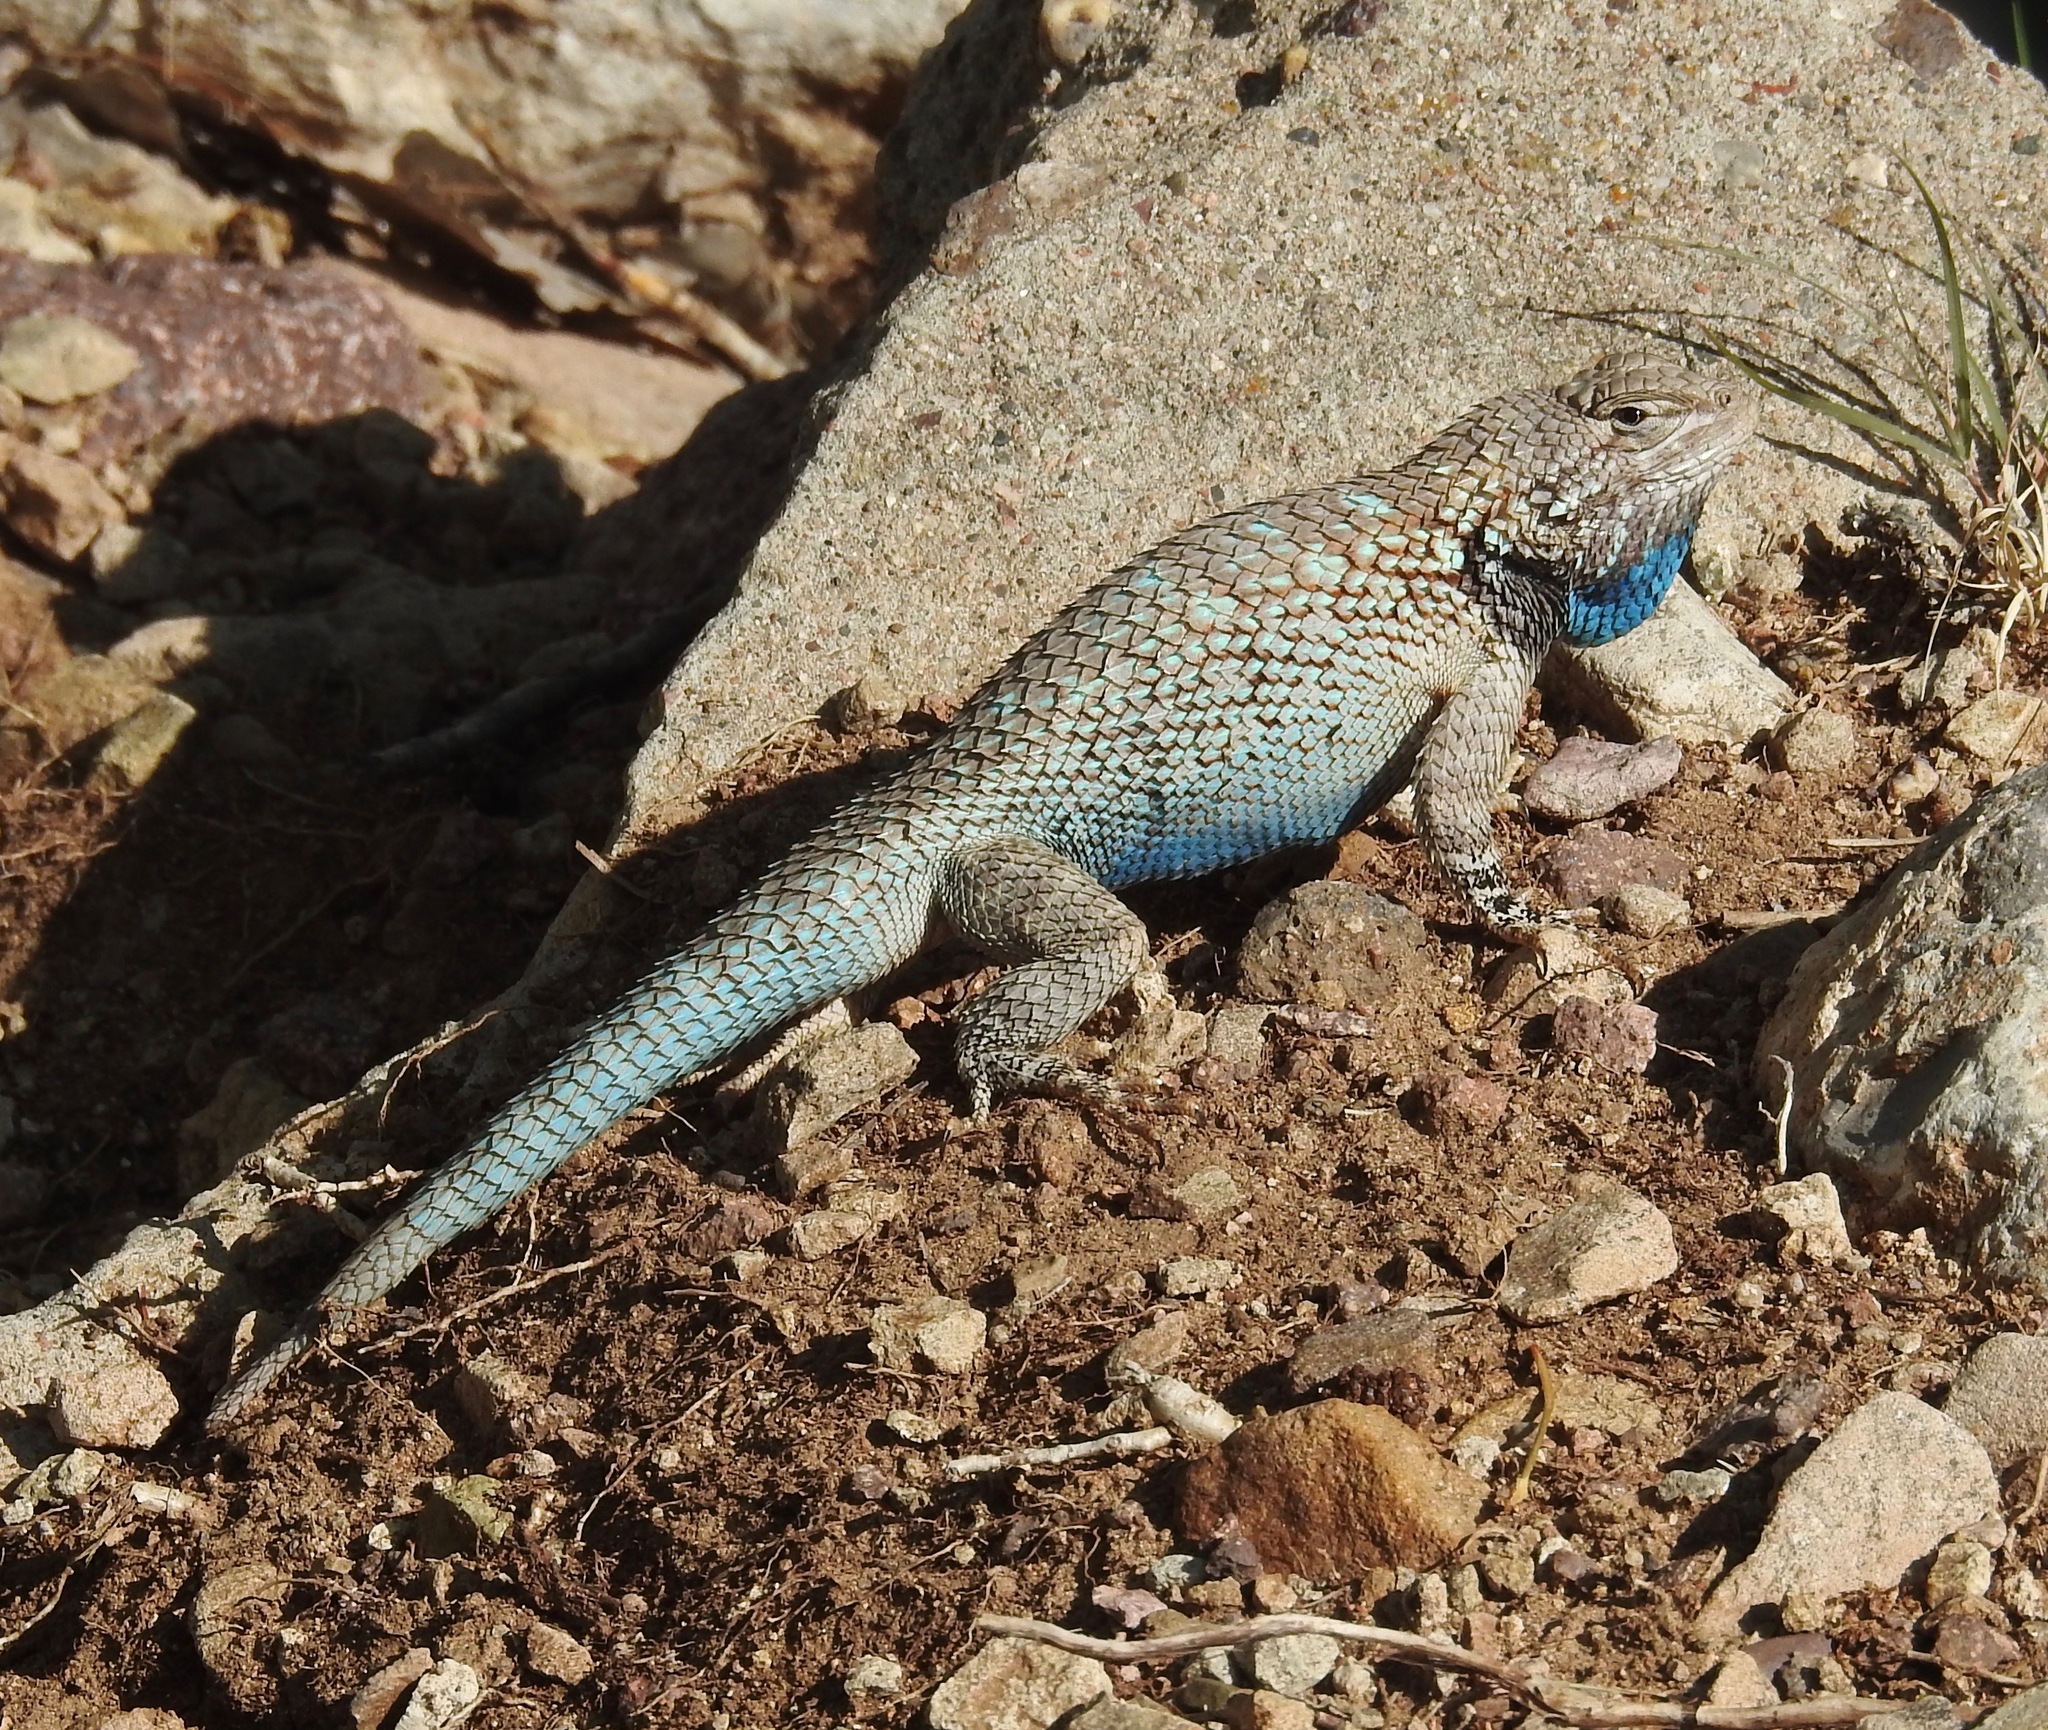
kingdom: Animalia
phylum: Chordata
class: Squamata
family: Phrynosomatidae
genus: Sceloporus
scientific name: Sceloporus clarkii
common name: Clark's spiny lizard
